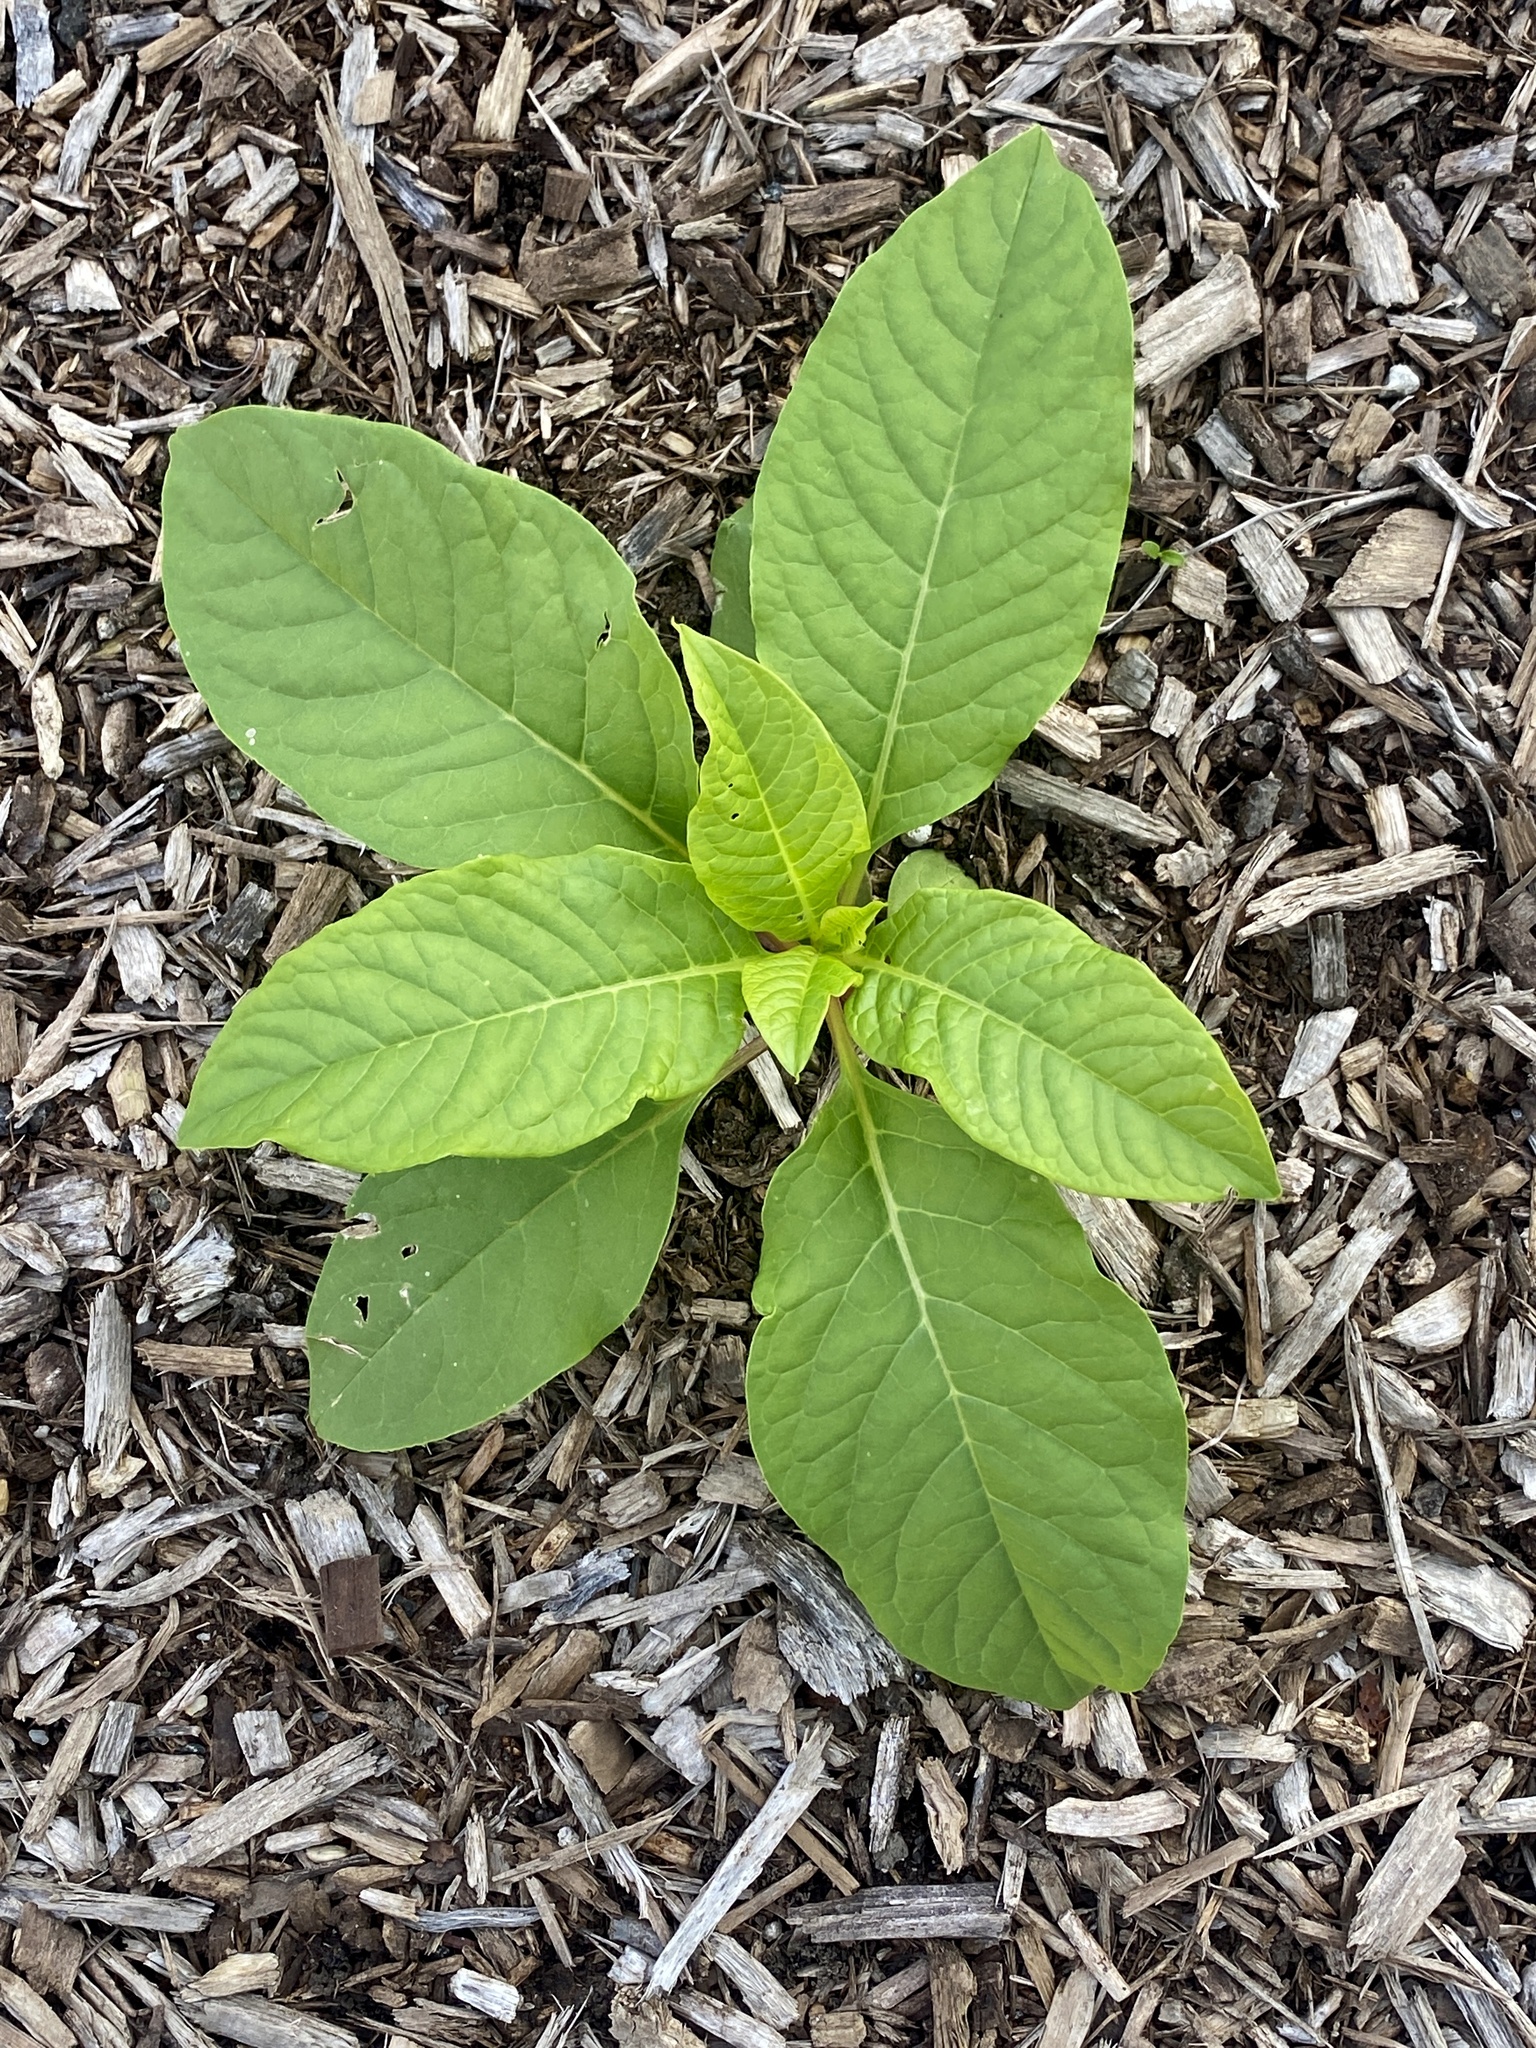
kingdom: Plantae
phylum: Tracheophyta
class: Magnoliopsida
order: Caryophyllales
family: Phytolaccaceae
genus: Phytolacca
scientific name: Phytolacca americana
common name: American pokeweed
